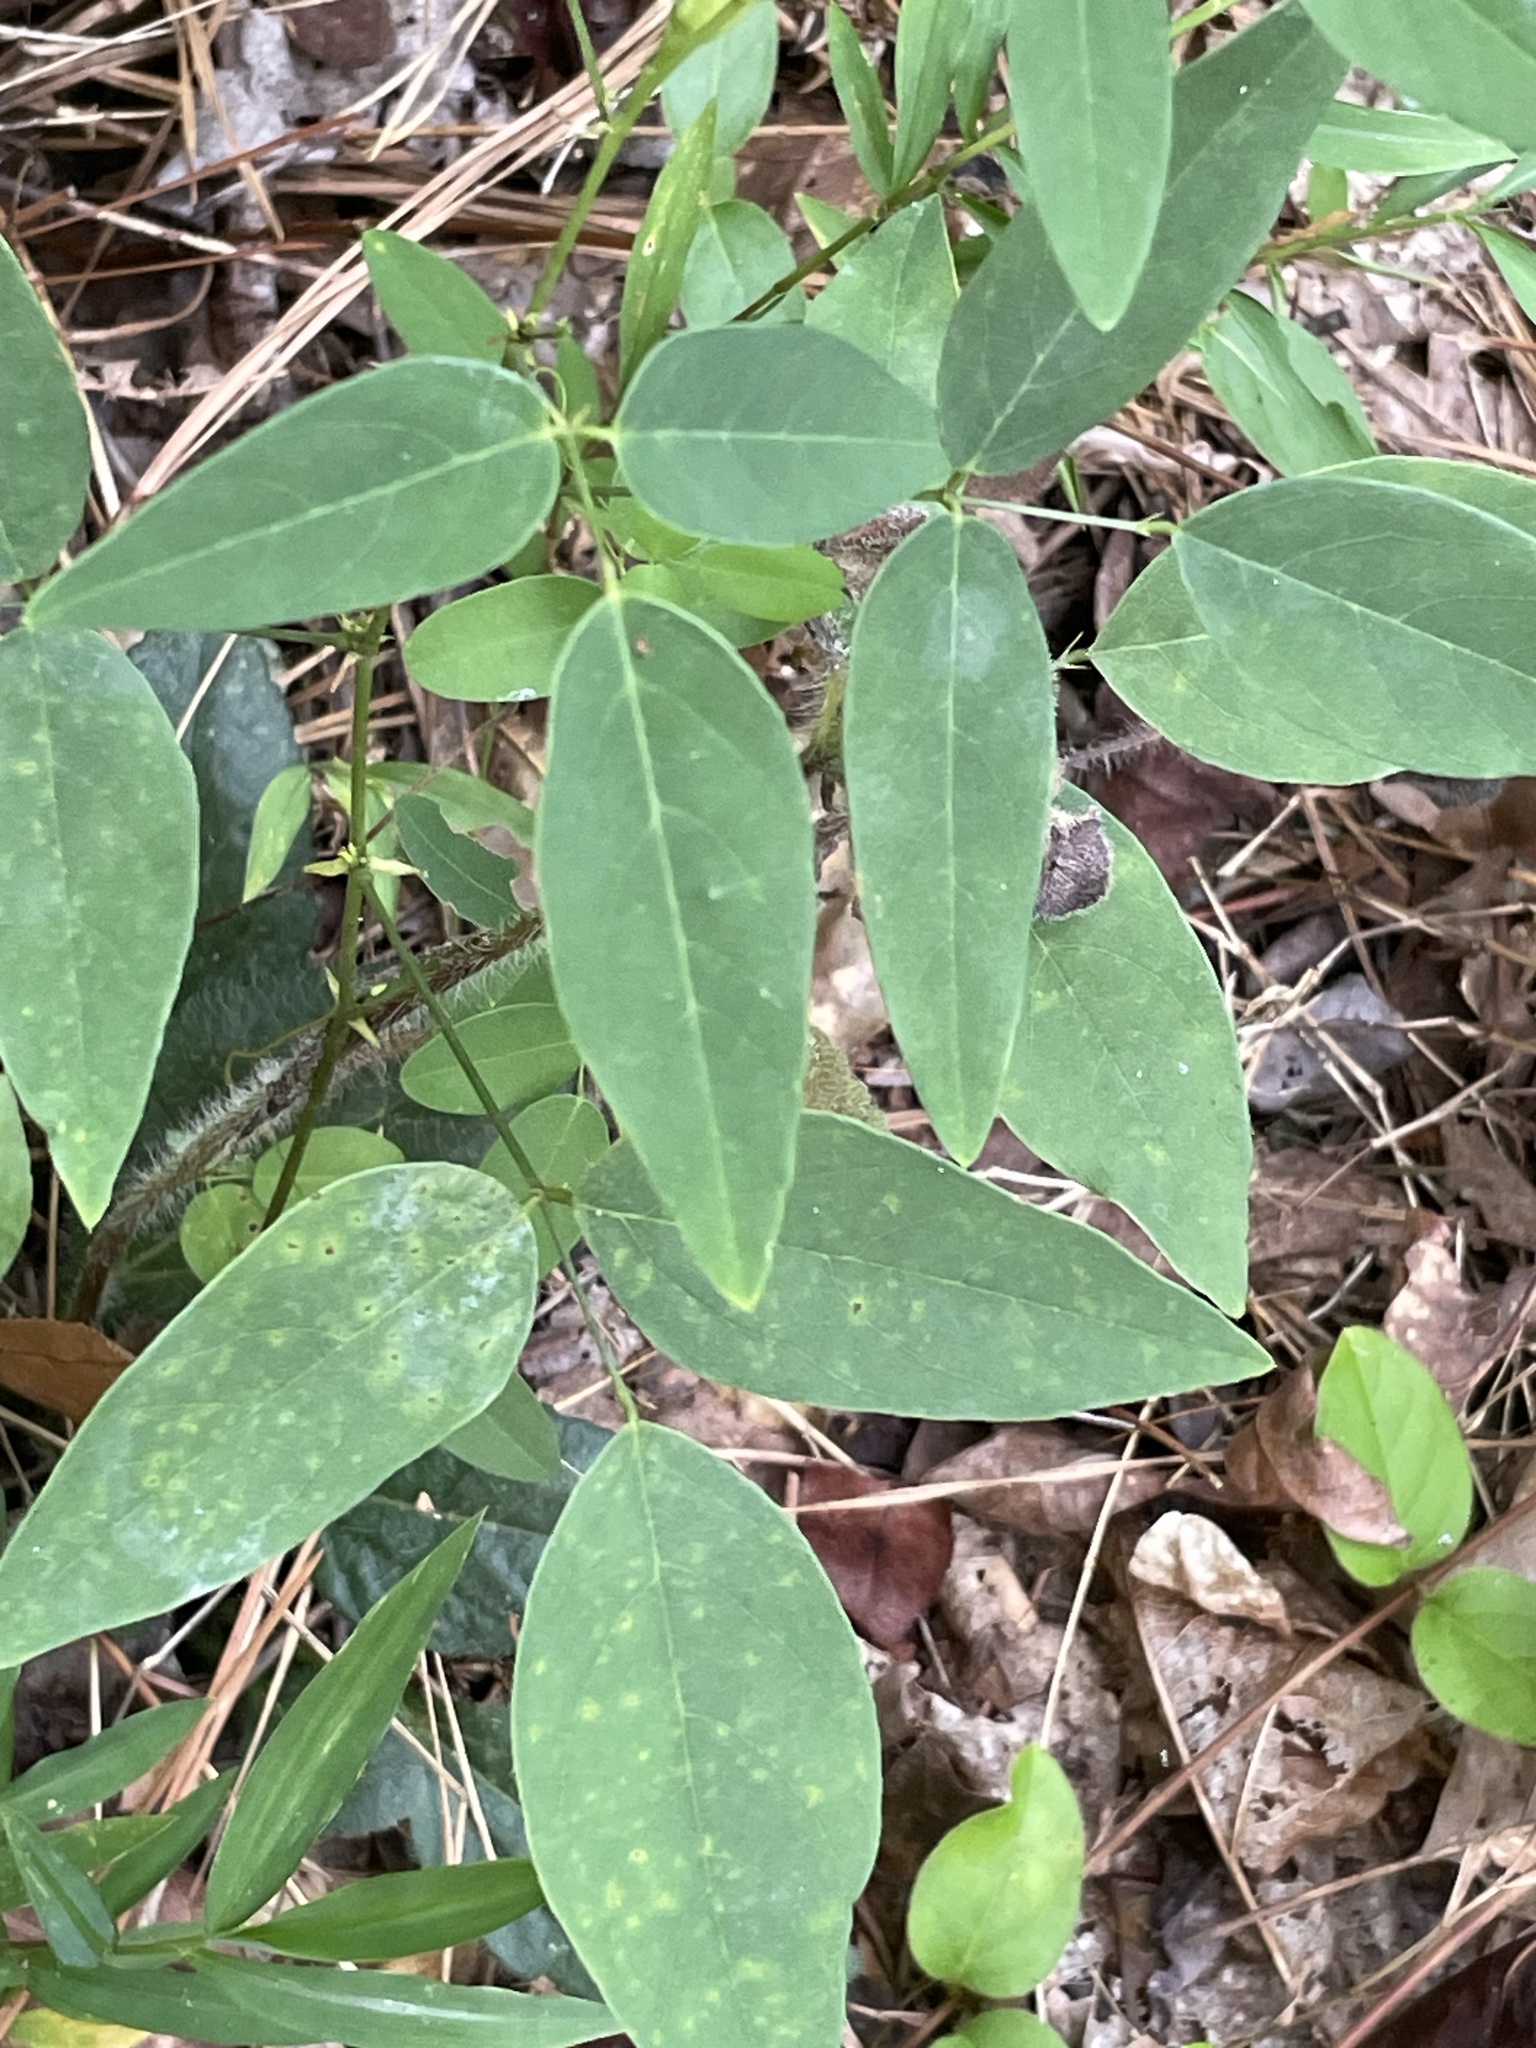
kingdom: Plantae
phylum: Tracheophyta
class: Magnoliopsida
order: Fabales
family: Fabaceae
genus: Clitoria
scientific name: Clitoria mariana
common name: Butterfly-pea
